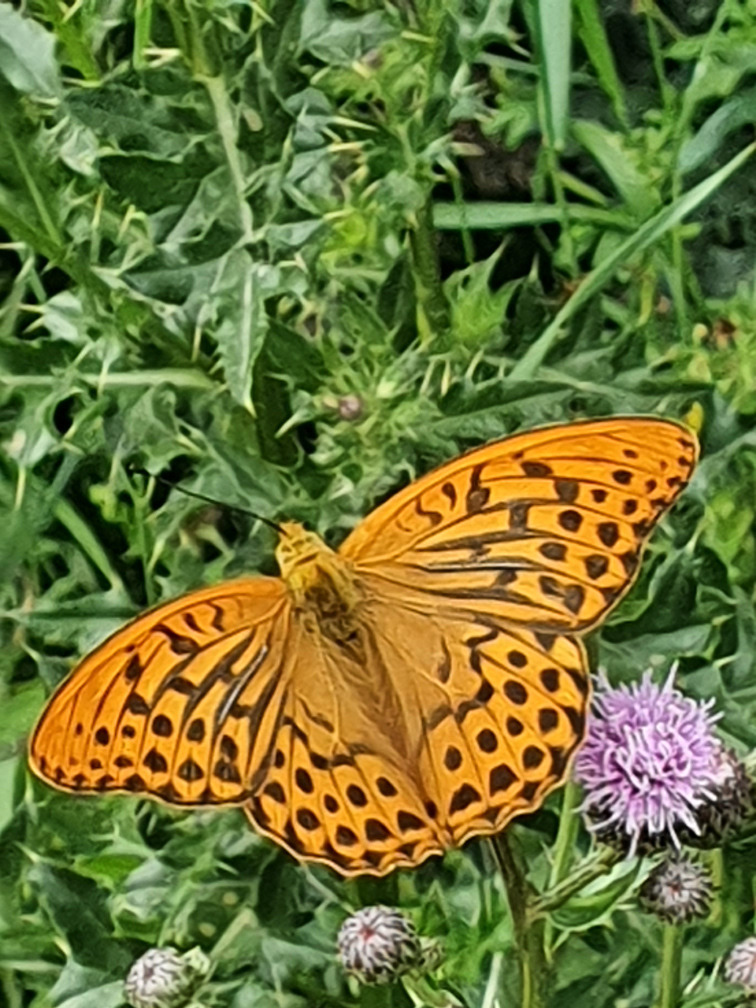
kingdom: Animalia
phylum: Arthropoda
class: Insecta
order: Lepidoptera
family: Nymphalidae
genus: Argynnis
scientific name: Argynnis paphia
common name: Silver-washed fritillary
